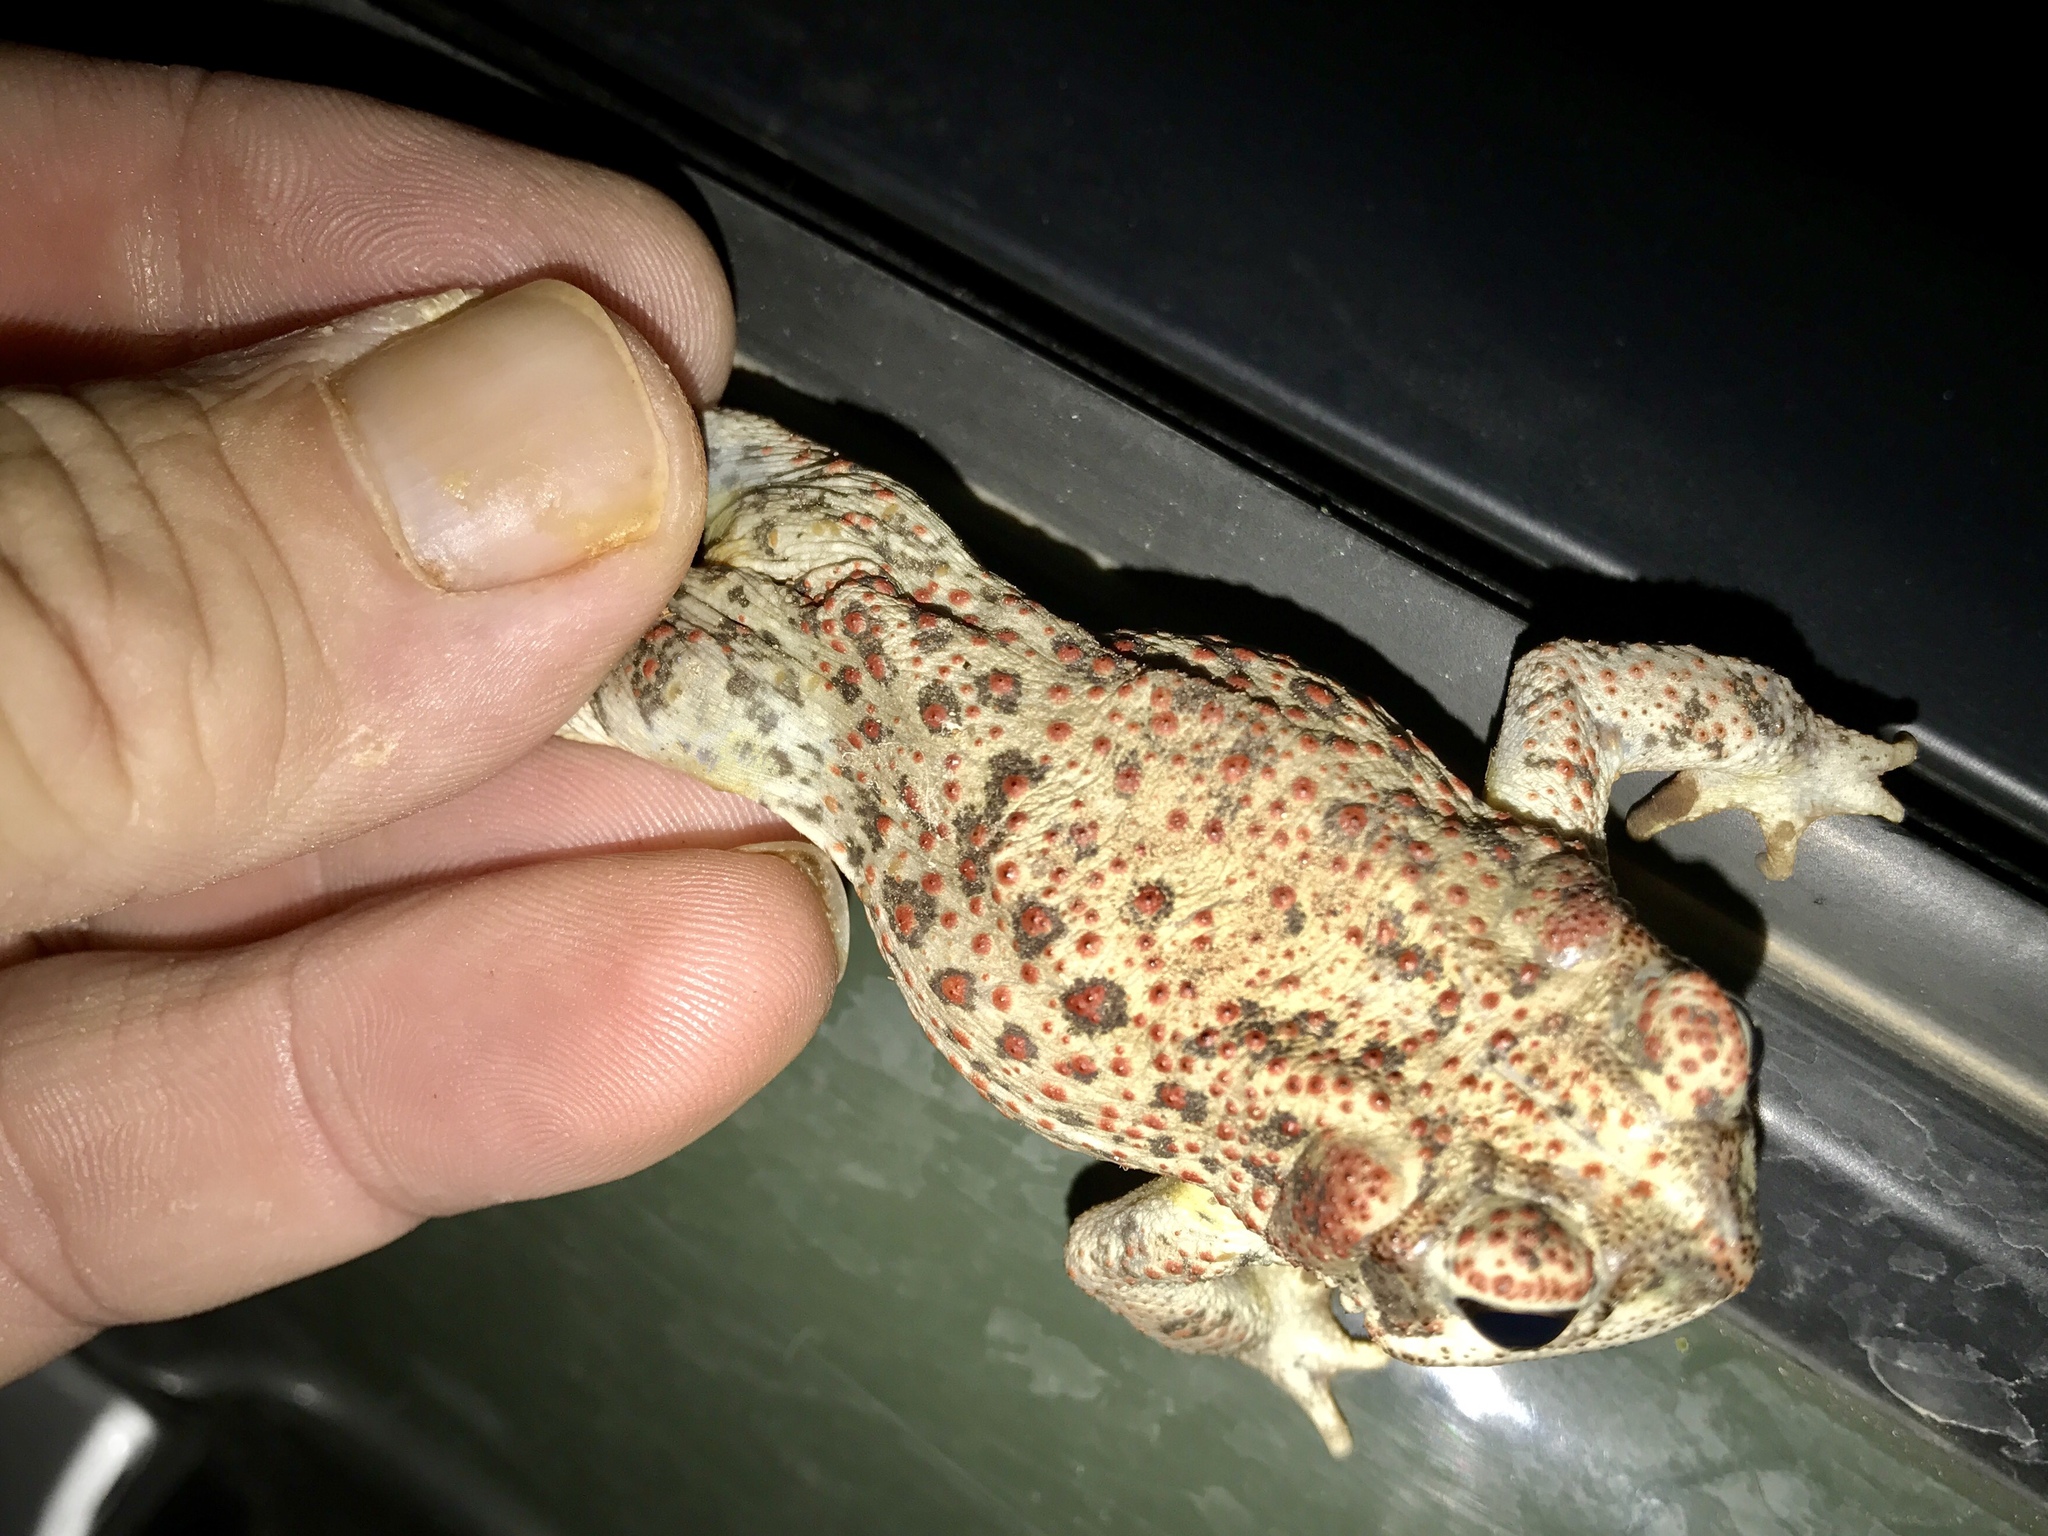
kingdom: Animalia
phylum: Chordata
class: Amphibia
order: Anura
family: Bufonidae
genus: Anaxyrus
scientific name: Anaxyrus punctatus
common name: Red-spotted toad
